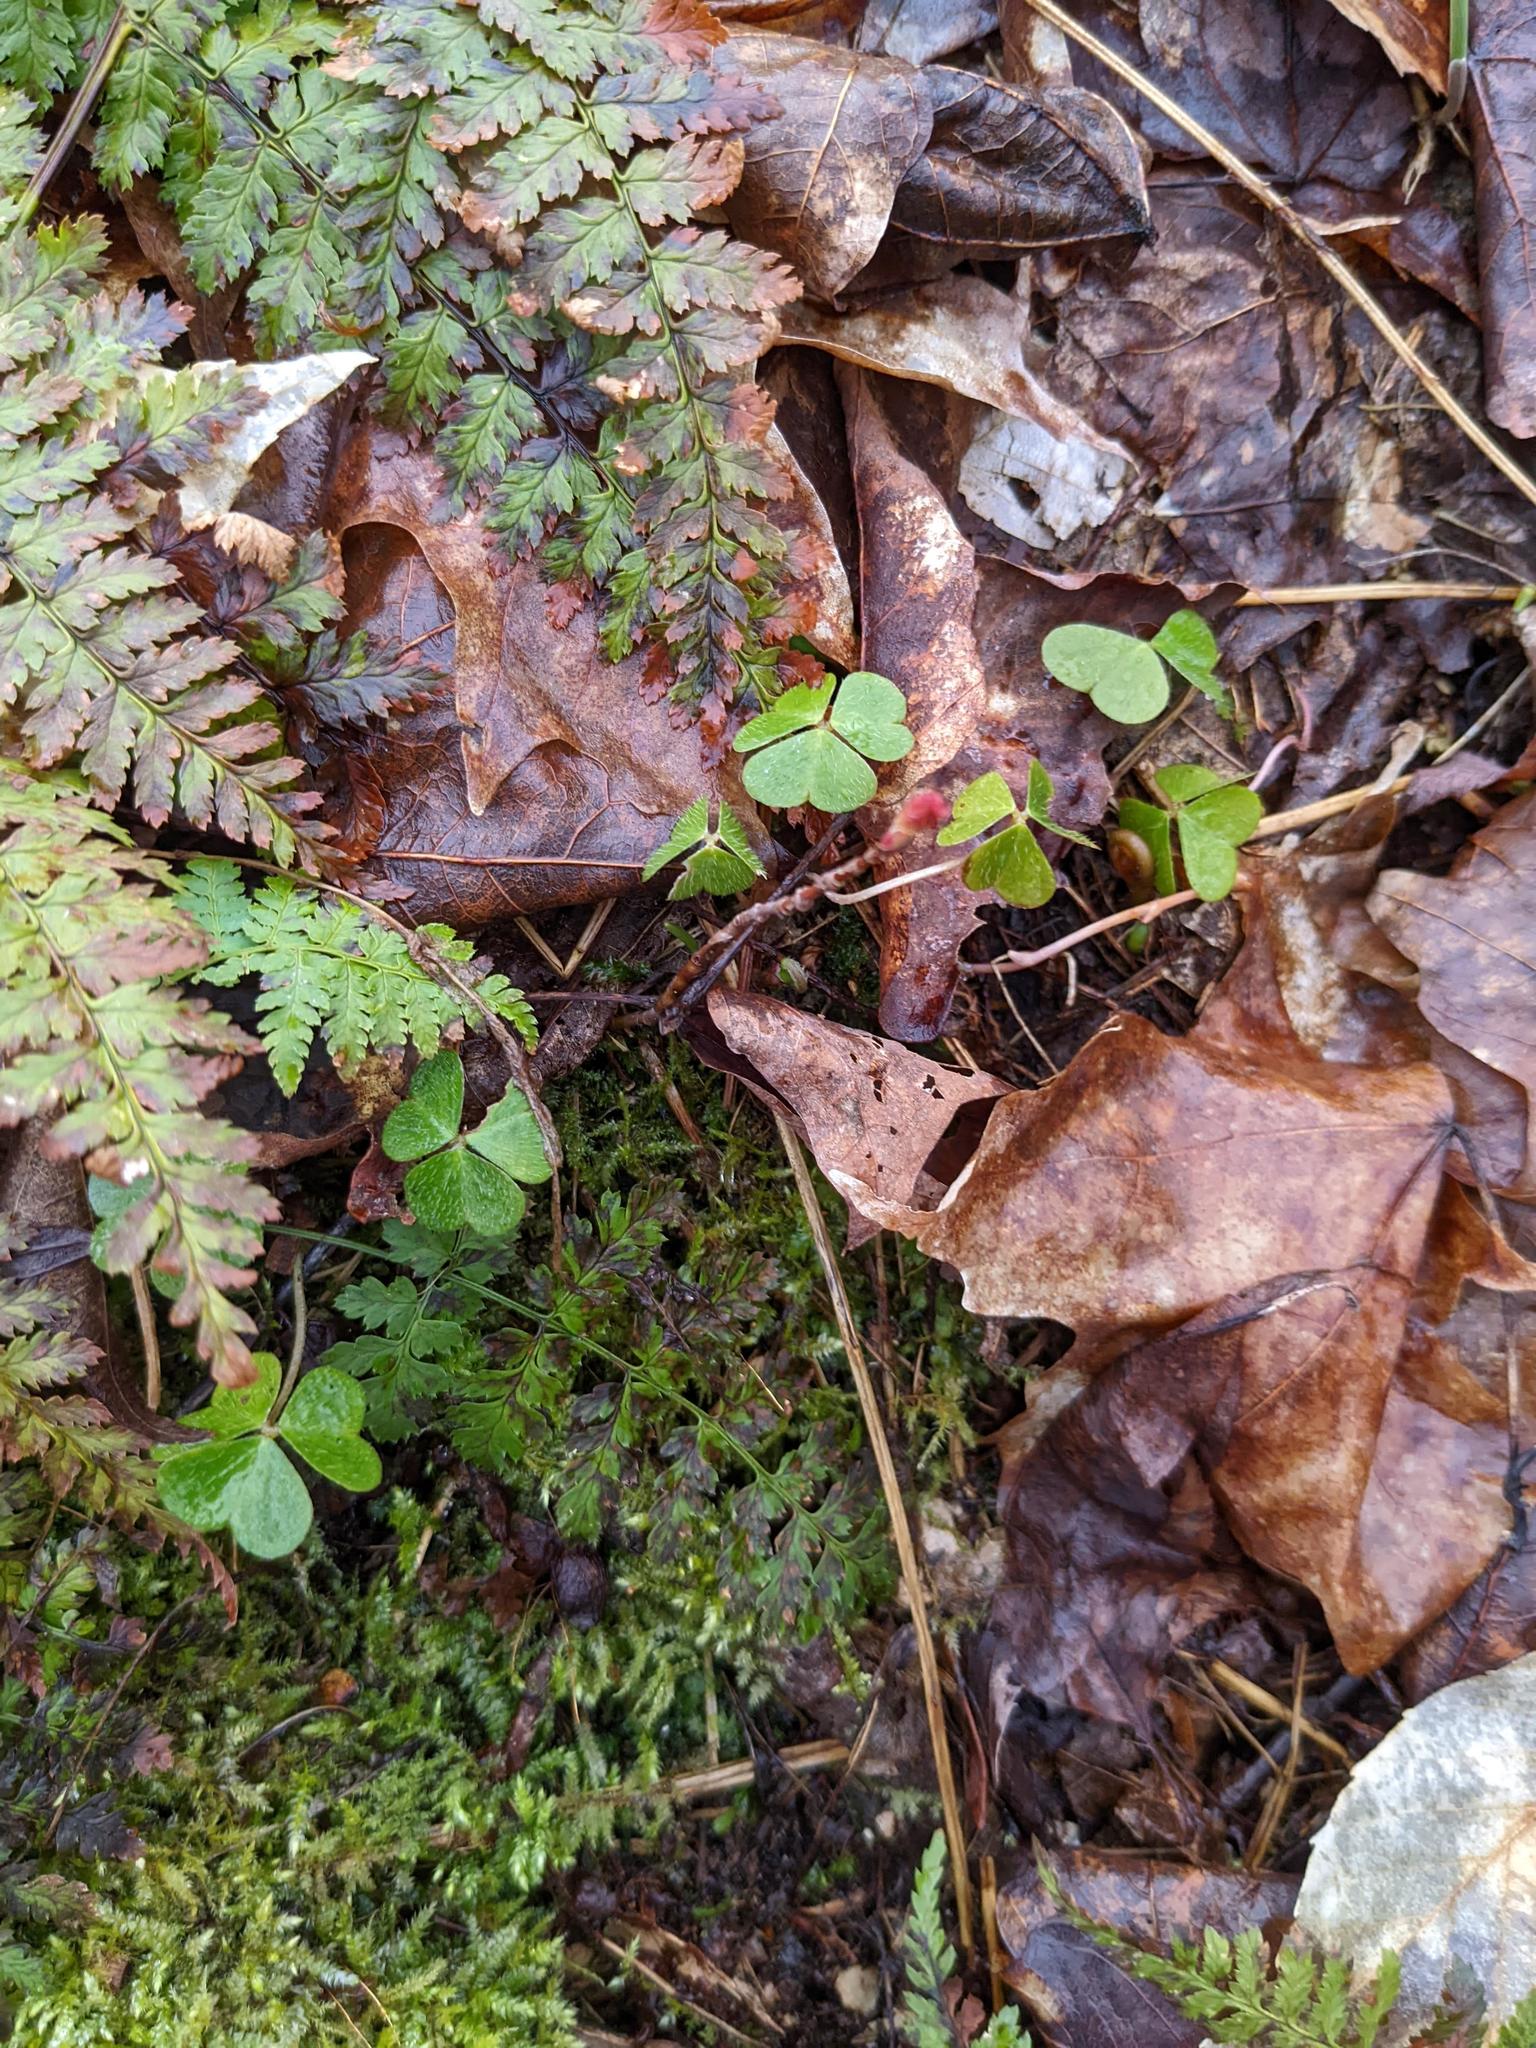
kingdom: Plantae
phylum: Tracheophyta
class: Magnoliopsida
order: Oxalidales
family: Oxalidaceae
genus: Oxalis
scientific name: Oxalis montana
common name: American wood-sorrel
